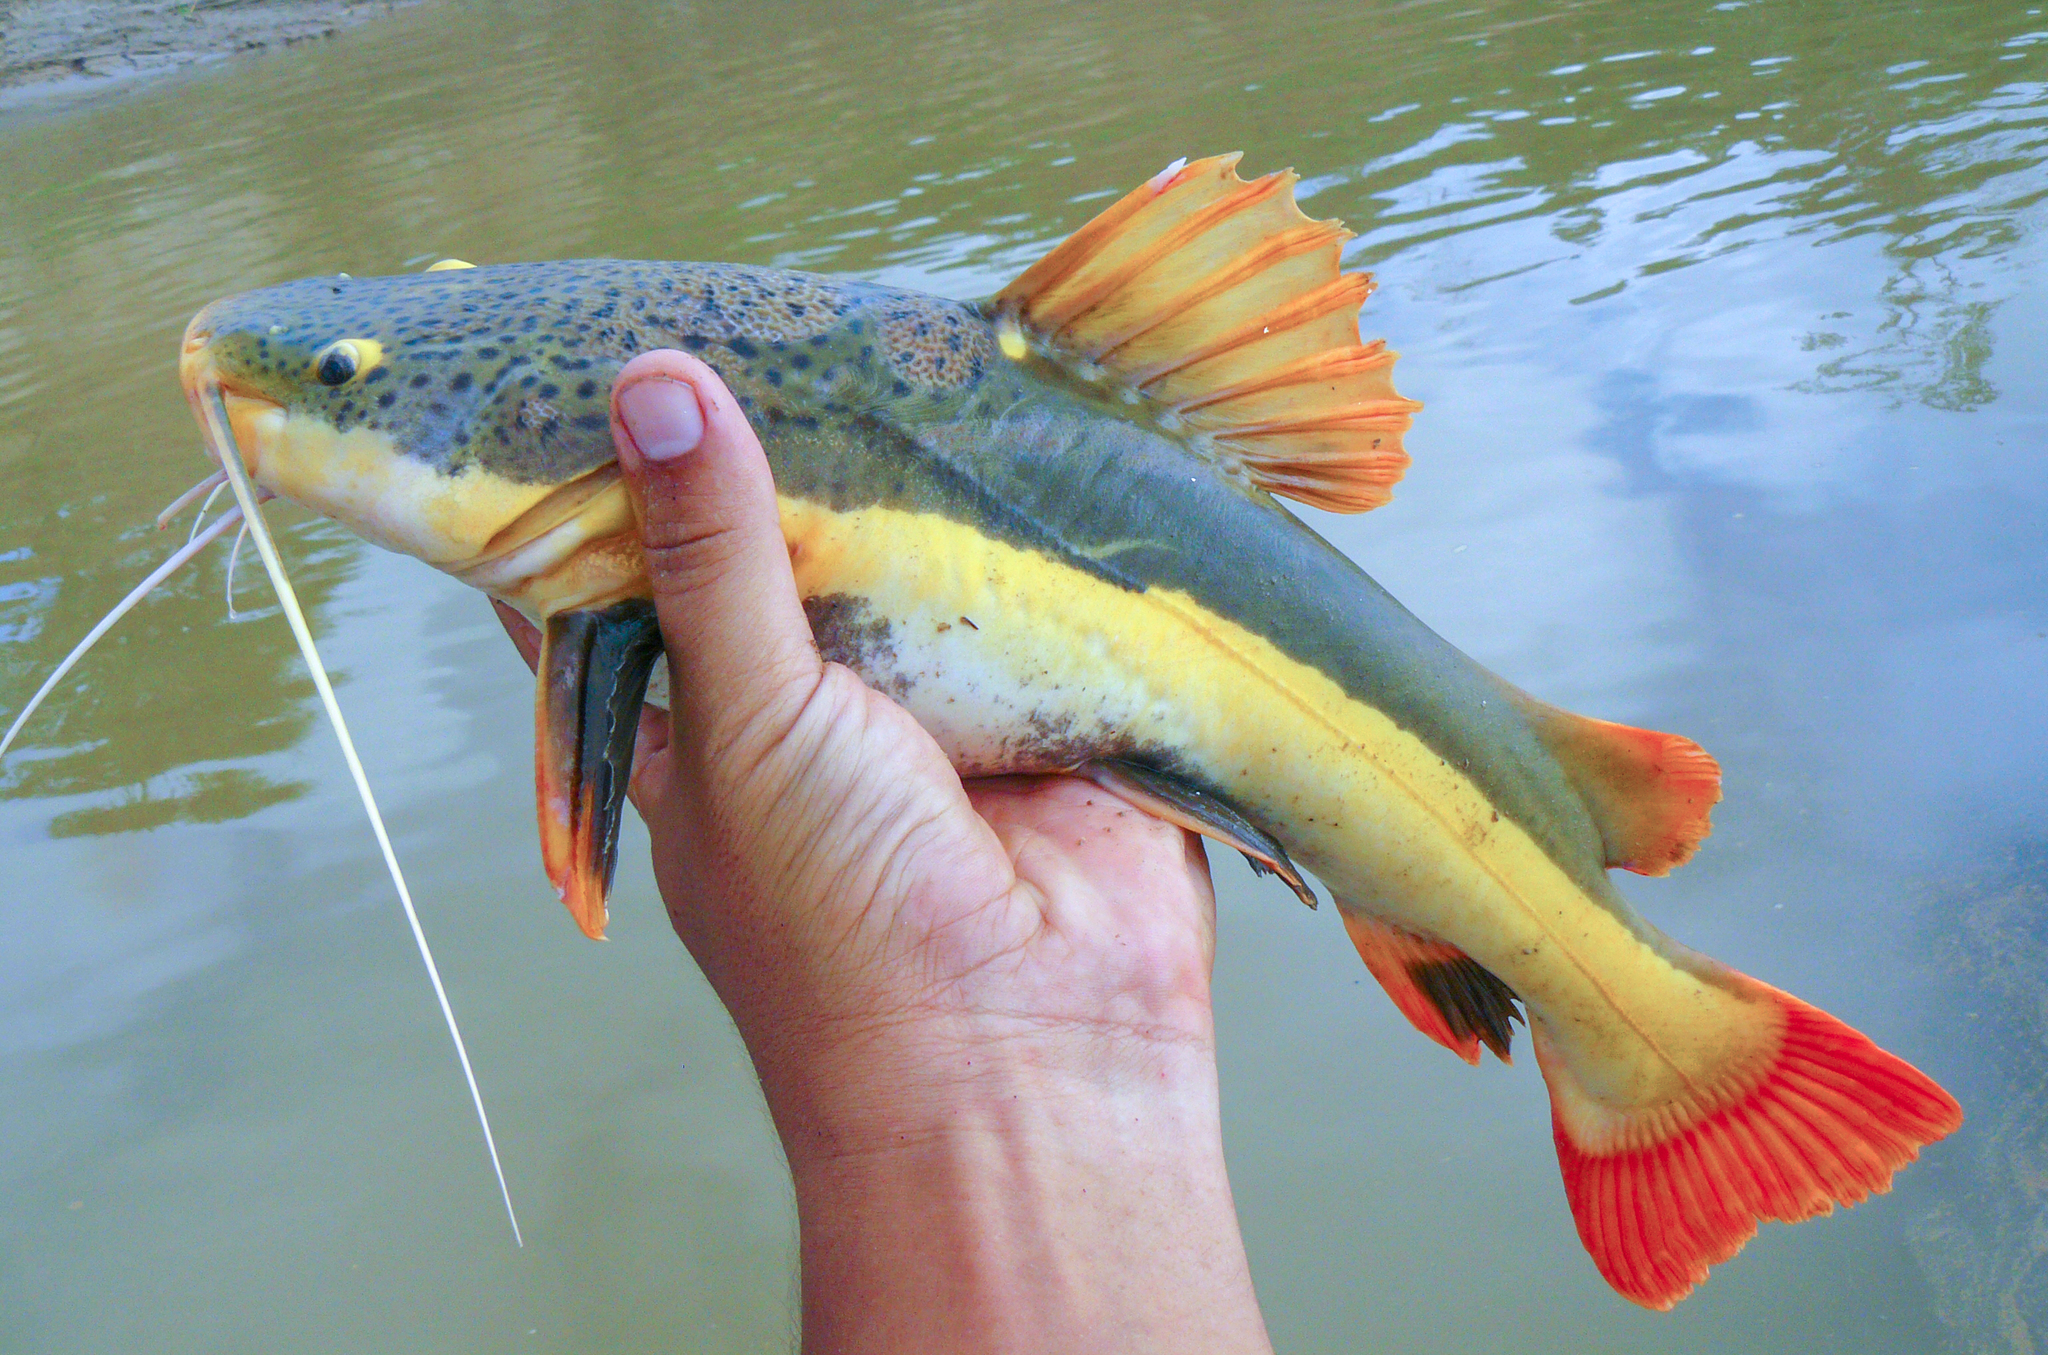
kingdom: Animalia
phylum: Chordata
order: Siluriformes
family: Pimelodidae
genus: Phractocephalus
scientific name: Phractocephalus hemioliopterus
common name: Redtail catfish
